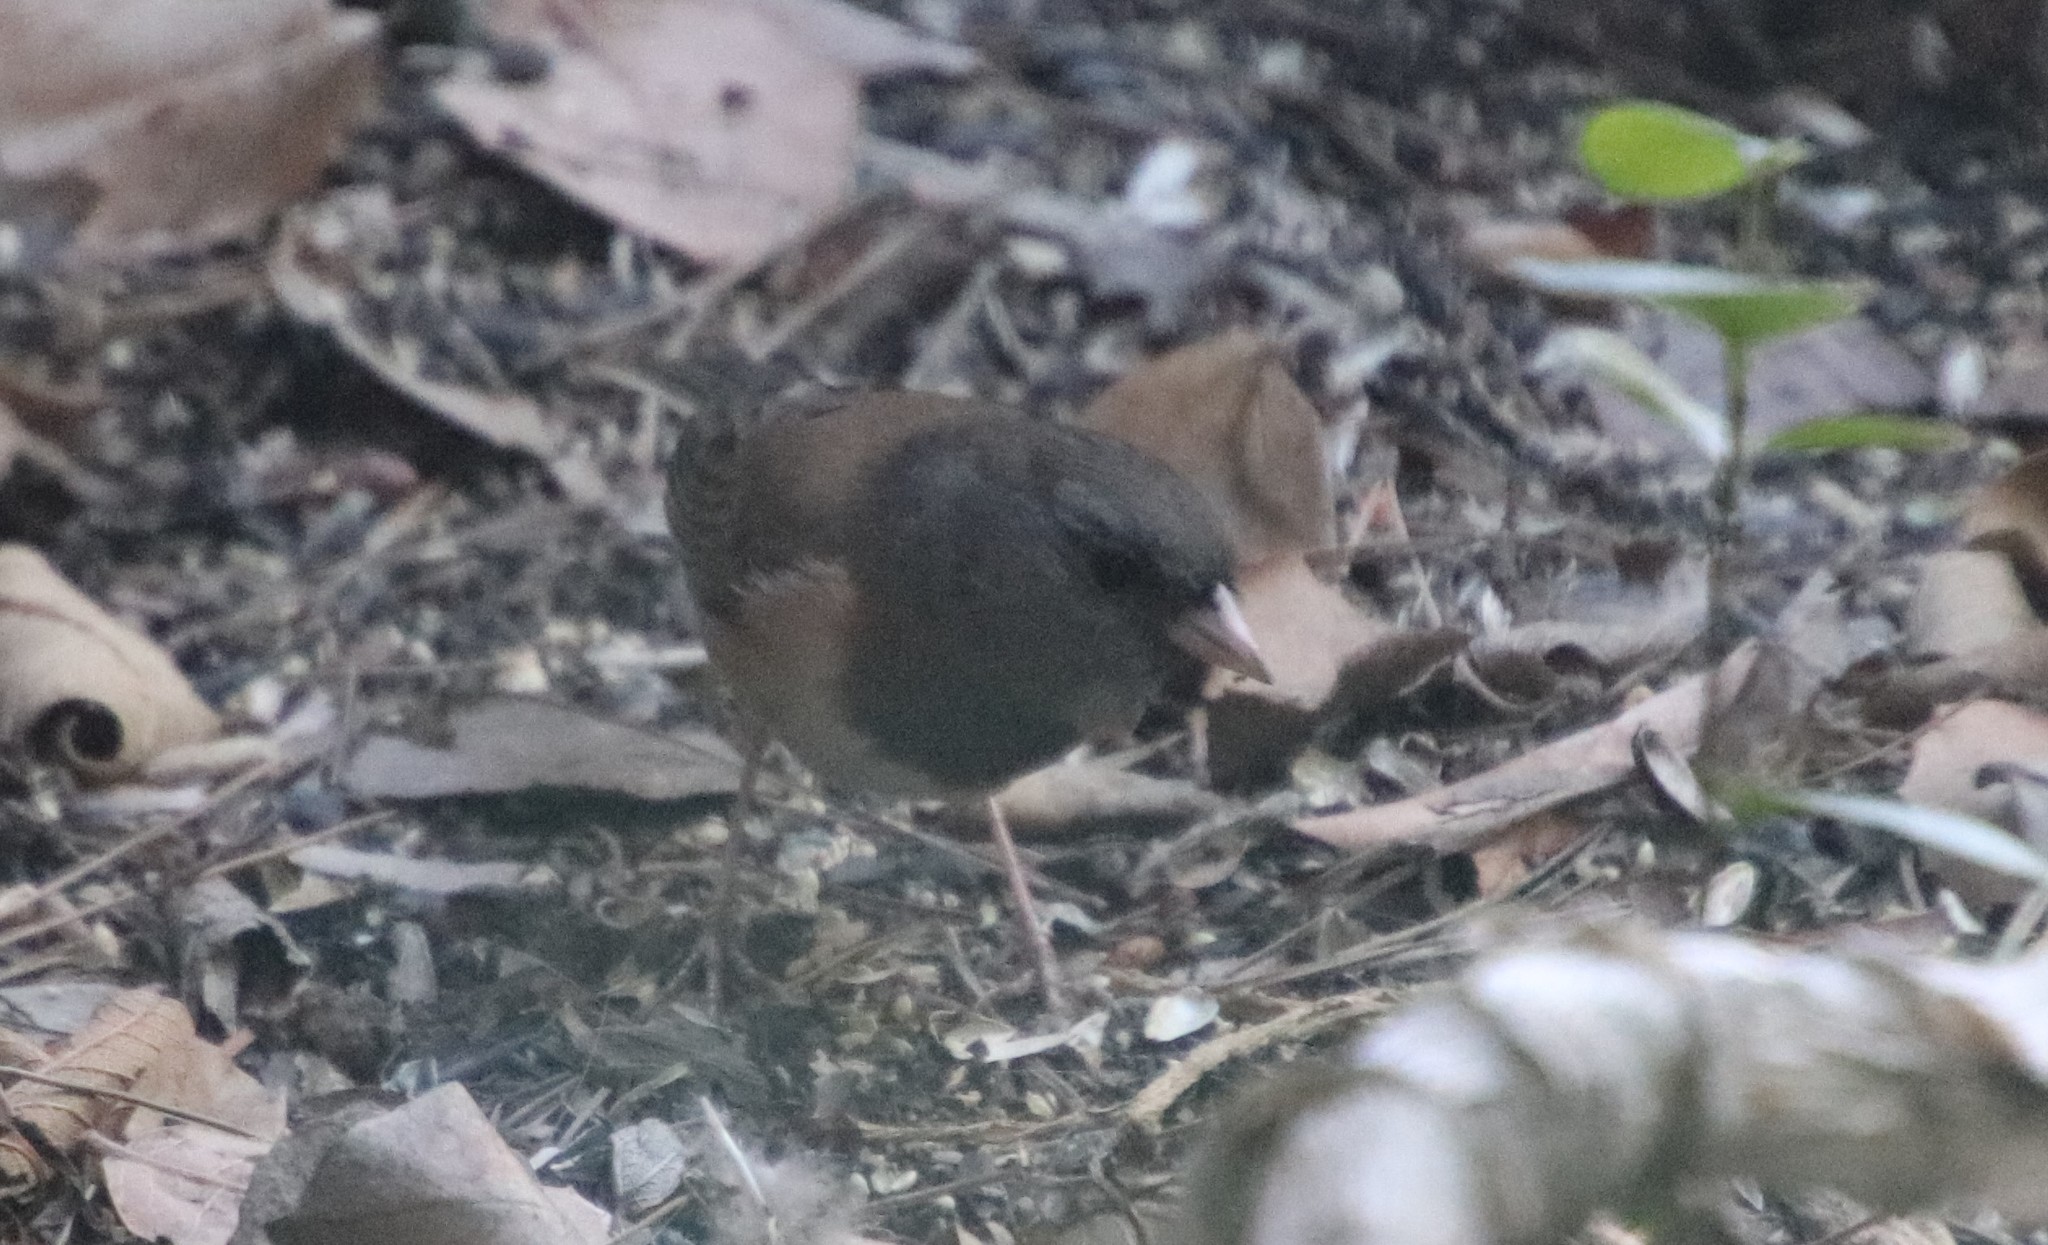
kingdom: Animalia
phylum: Chordata
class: Aves
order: Passeriformes
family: Passerellidae
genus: Junco
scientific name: Junco hyemalis
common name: Dark-eyed junco
